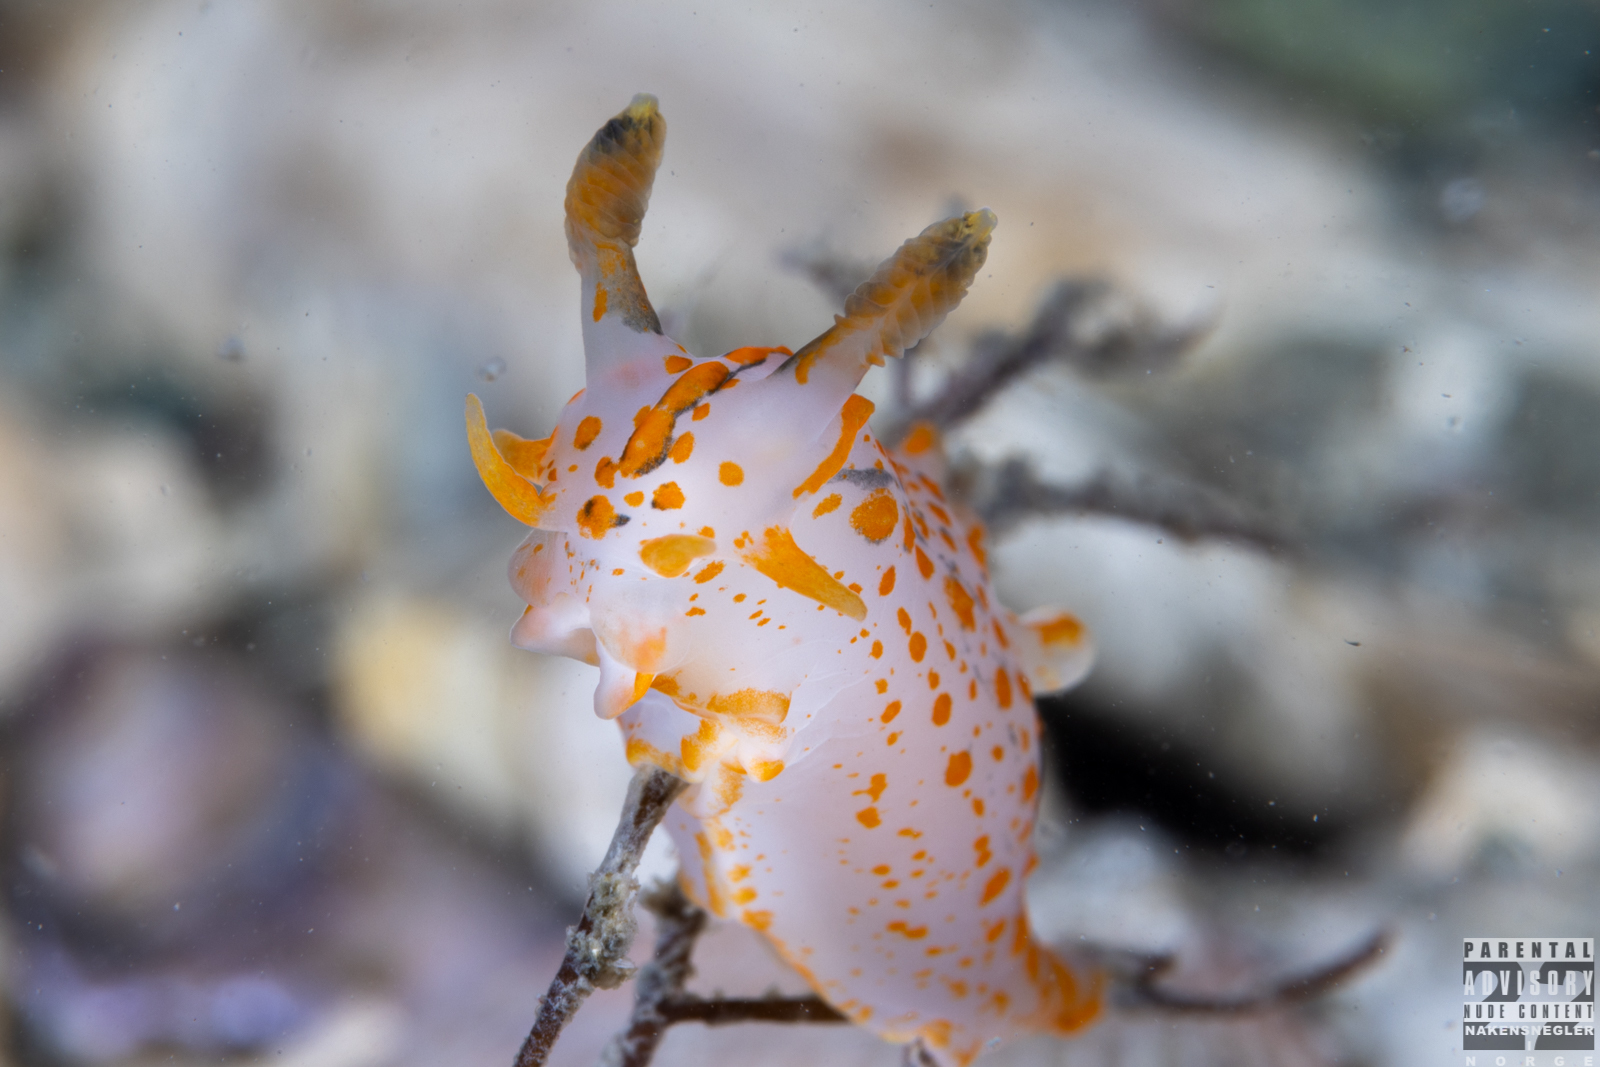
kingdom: Animalia
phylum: Mollusca
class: Gastropoda
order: Nudibranchia
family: Polyceridae
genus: Polycera
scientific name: Polycera quadrilineata
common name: Four-striped polycera
